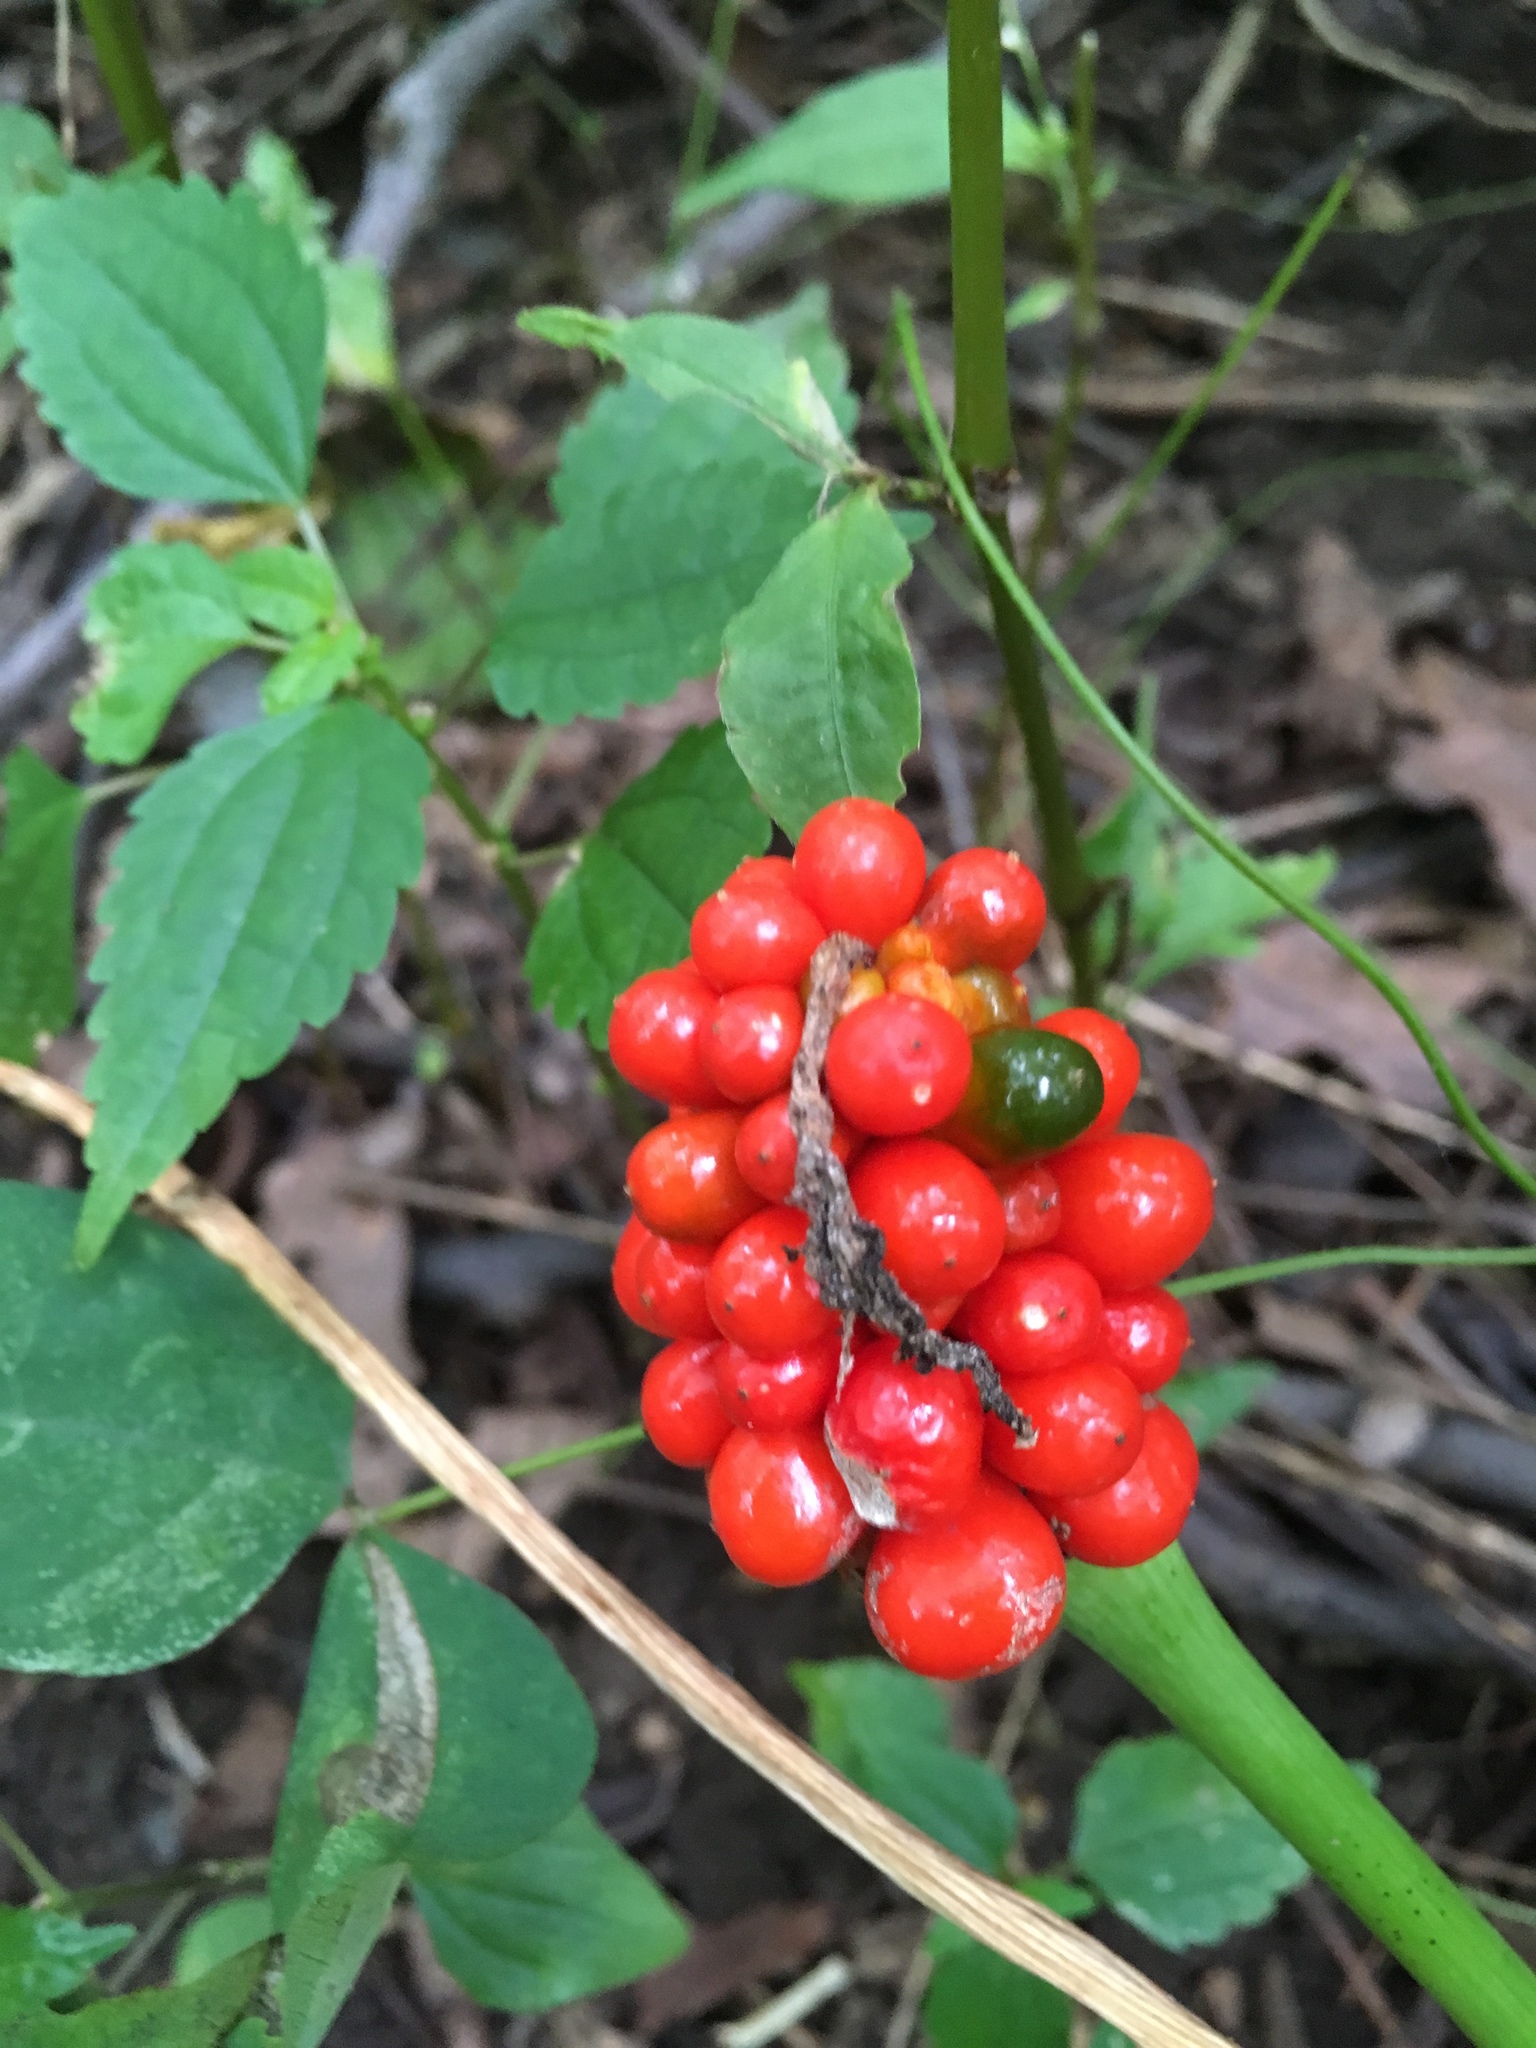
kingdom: Plantae
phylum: Tracheophyta
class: Liliopsida
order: Alismatales
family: Araceae
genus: Arisaema
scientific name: Arisaema triphyllum
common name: Jack-in-the-pulpit
